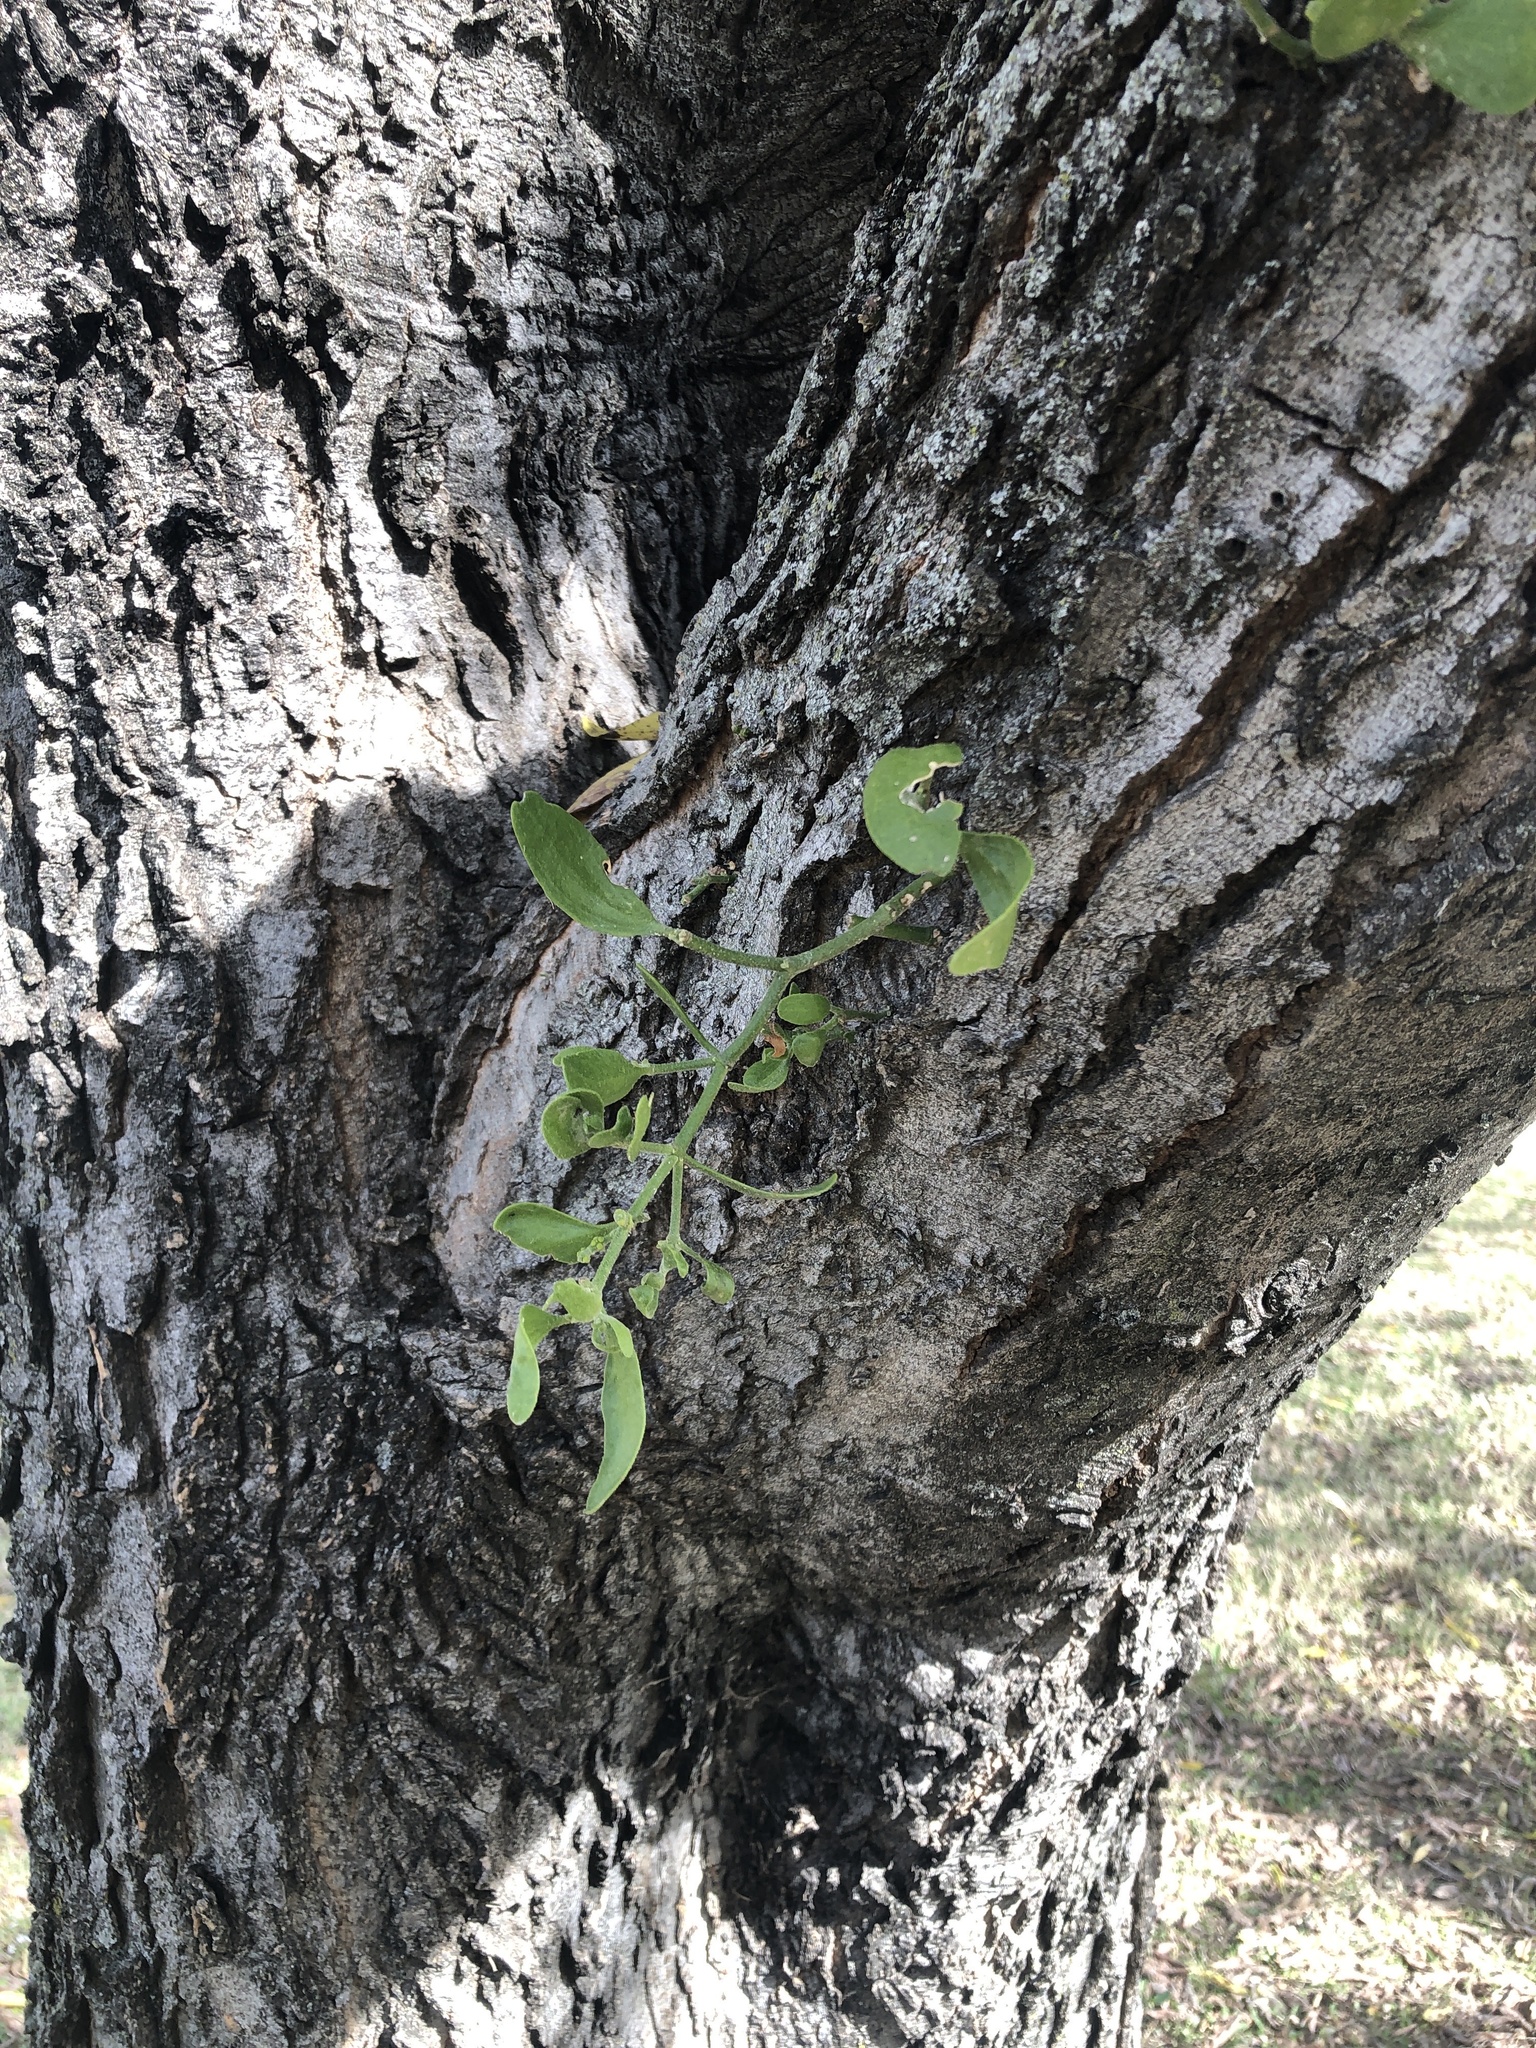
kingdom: Plantae
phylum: Tracheophyta
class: Magnoliopsida
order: Santalales
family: Viscaceae
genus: Phoradendron
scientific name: Phoradendron leucarpum
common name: Pacific mistletoe
